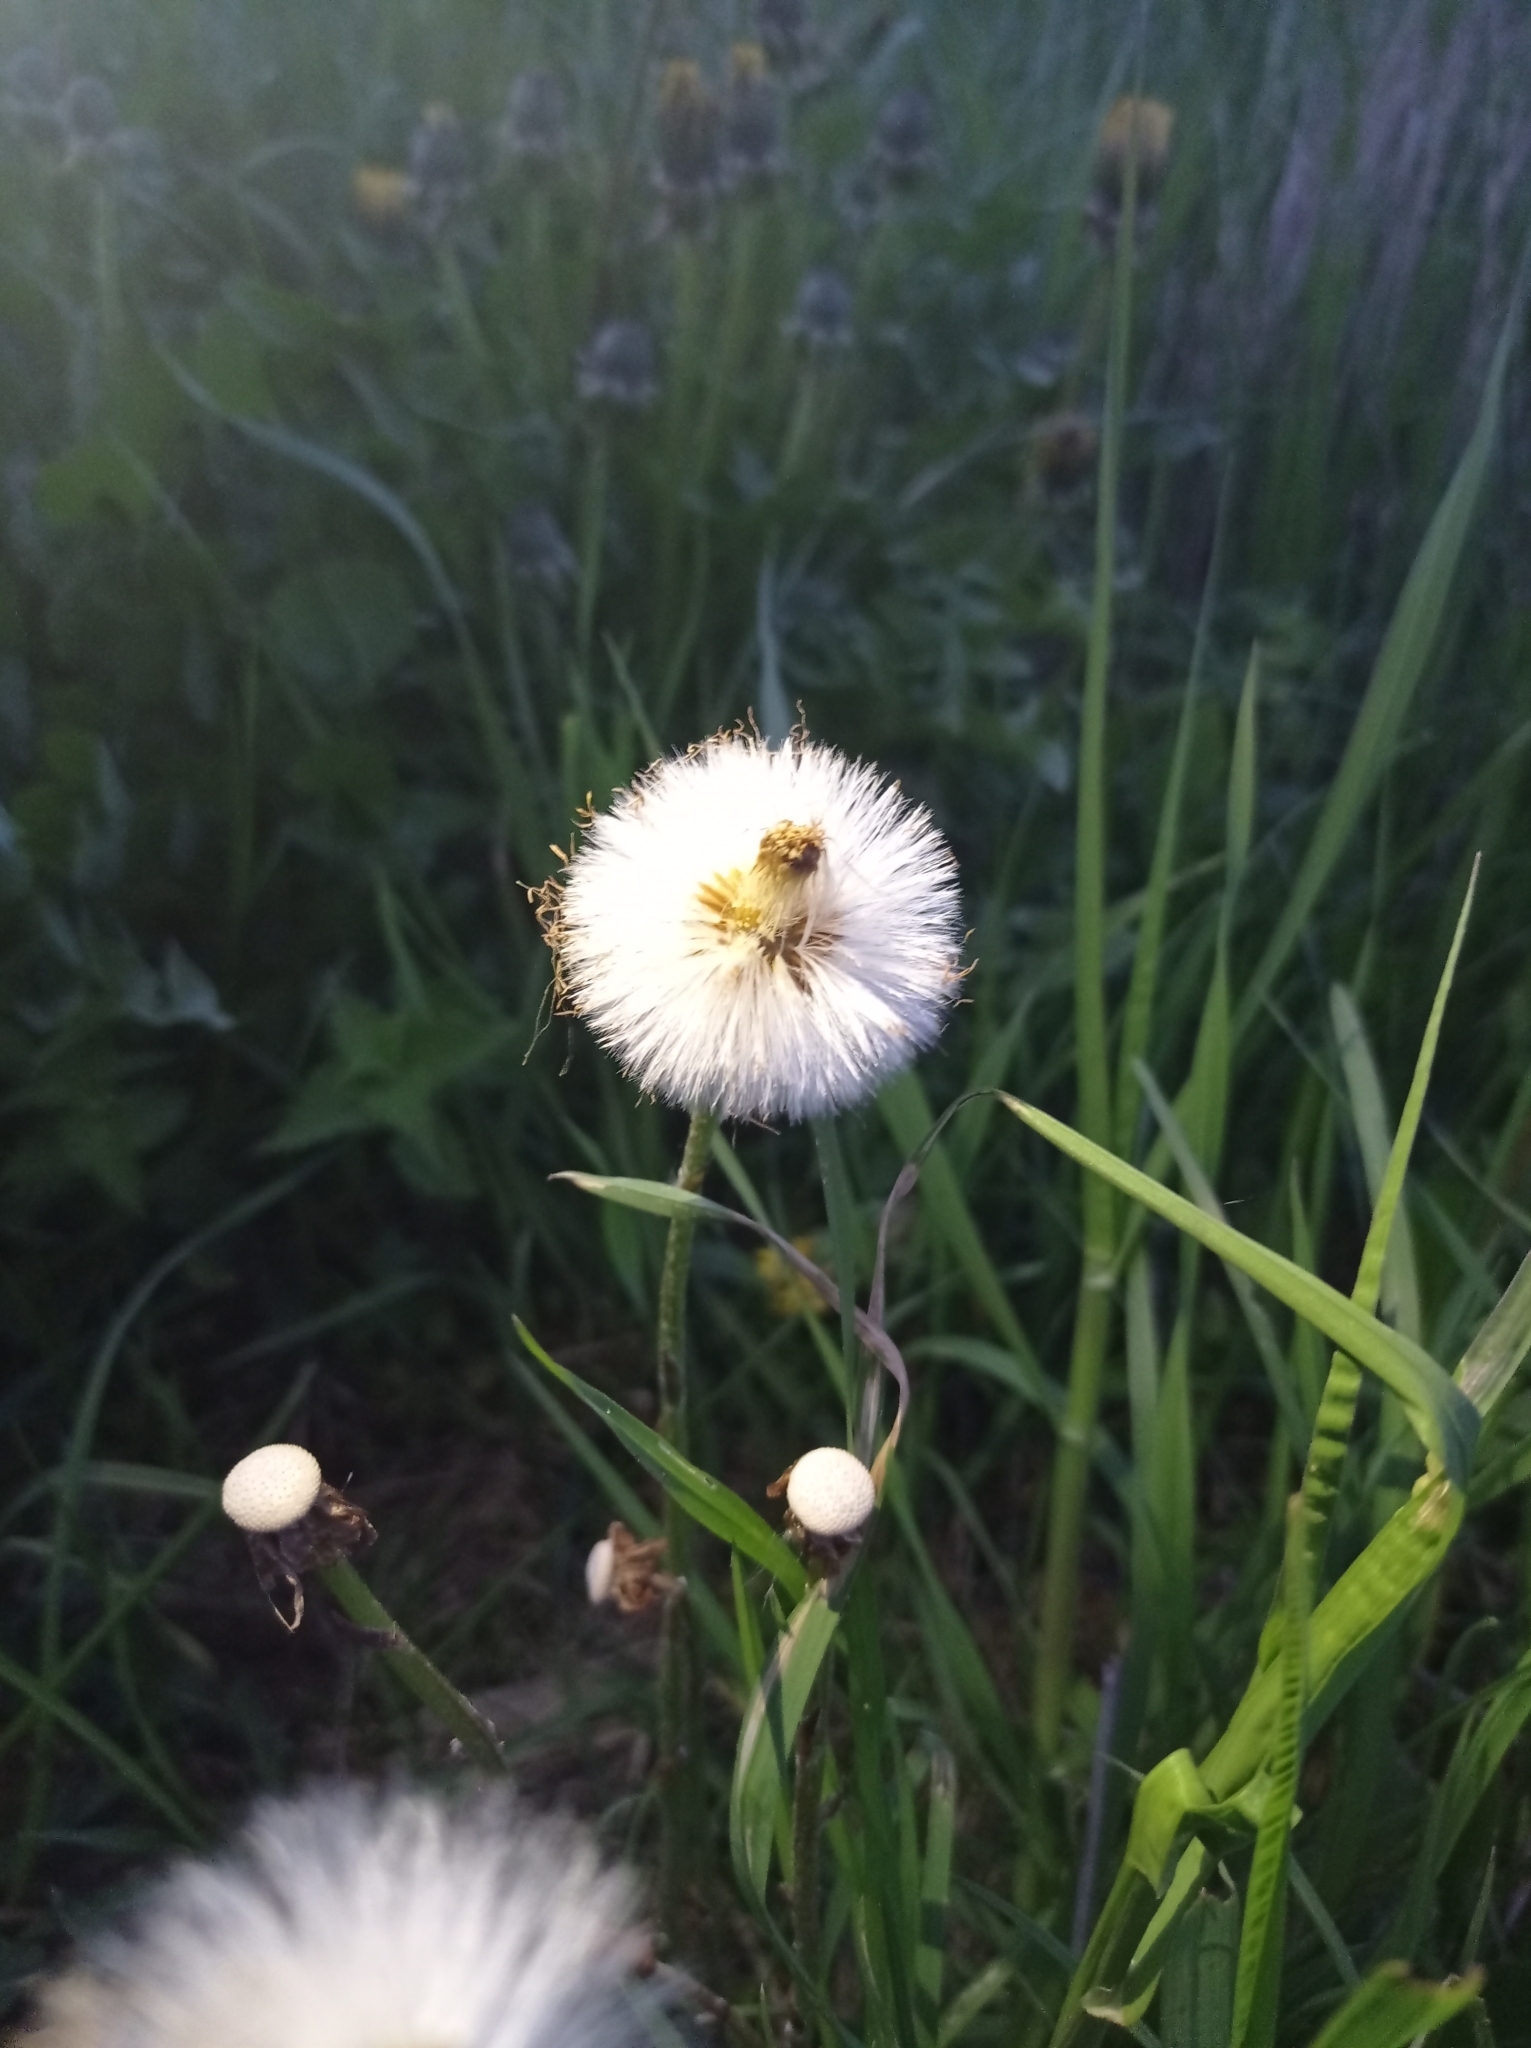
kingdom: Plantae
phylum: Tracheophyta
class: Magnoliopsida
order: Asterales
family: Asteraceae
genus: Tussilago
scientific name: Tussilago farfara
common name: Coltsfoot
